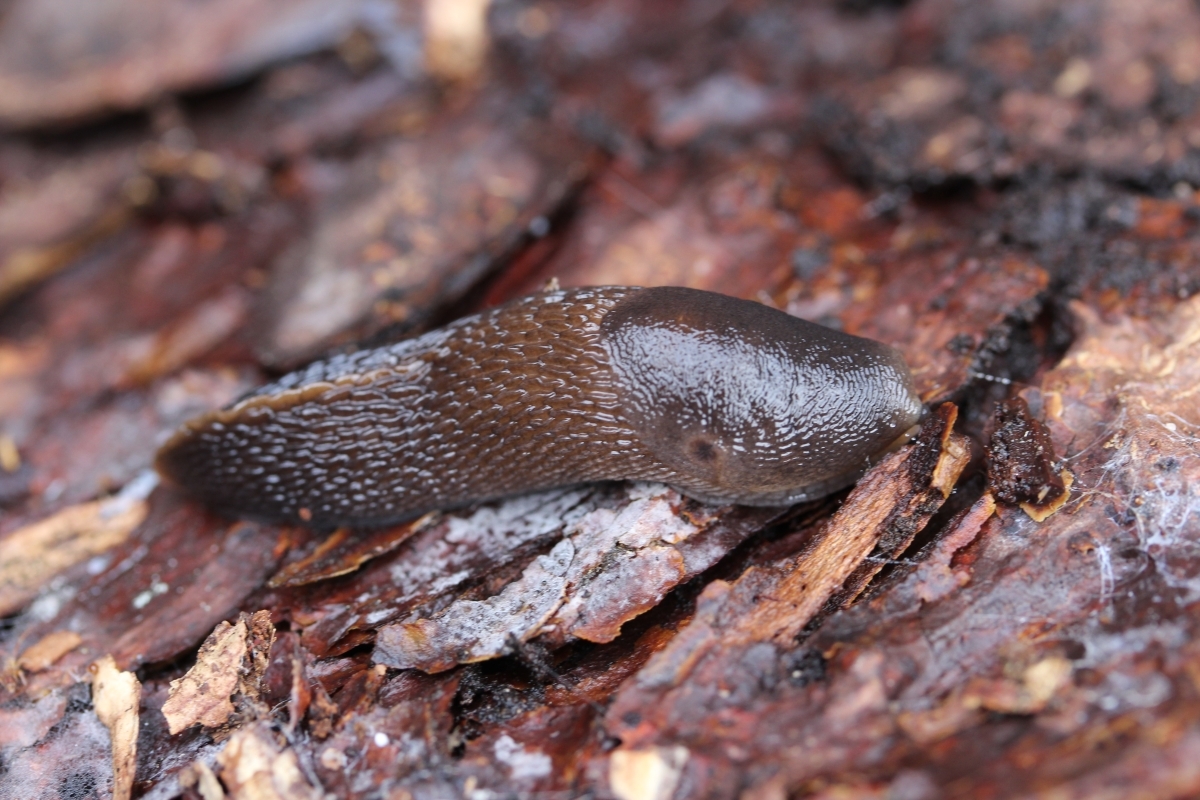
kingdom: Animalia
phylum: Mollusca
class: Gastropoda
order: Stylommatophora
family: Limacidae
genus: Limax
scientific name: Limax cinereoniger
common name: Ash-black slug
